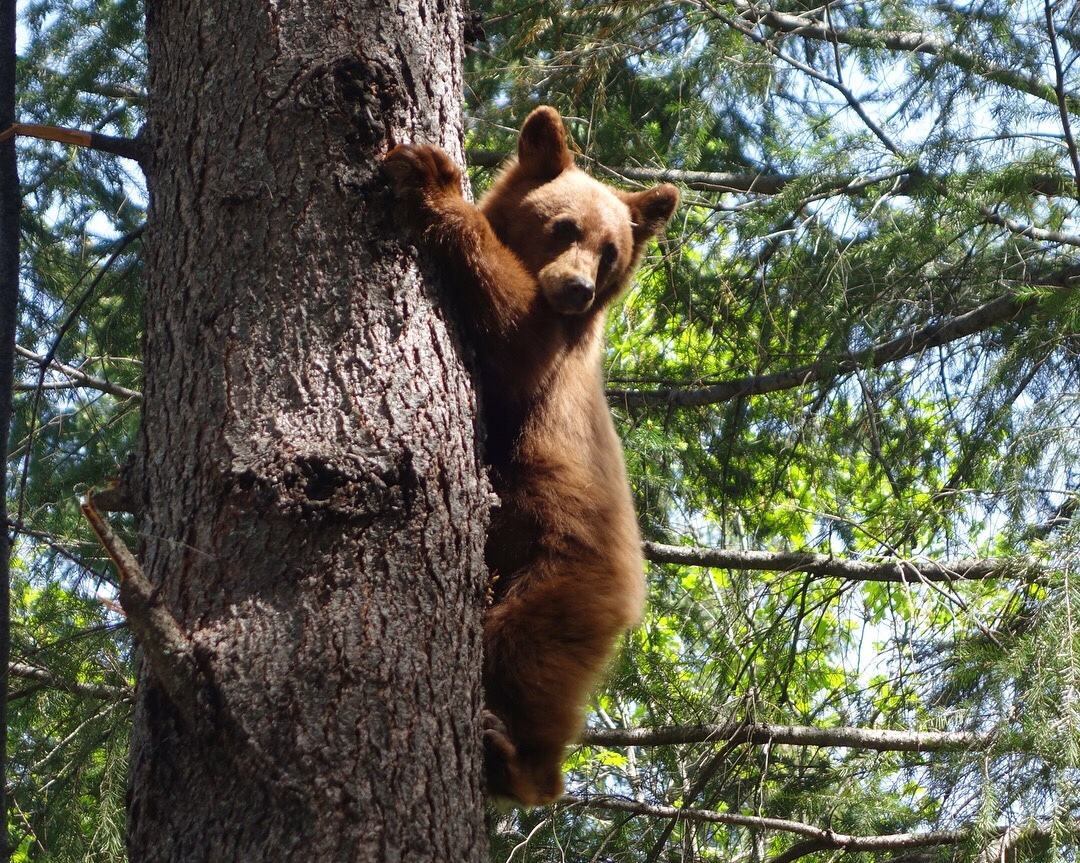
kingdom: Animalia
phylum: Chordata
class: Mammalia
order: Carnivora
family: Ursidae
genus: Ursus
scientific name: Ursus americanus
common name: American black bear
